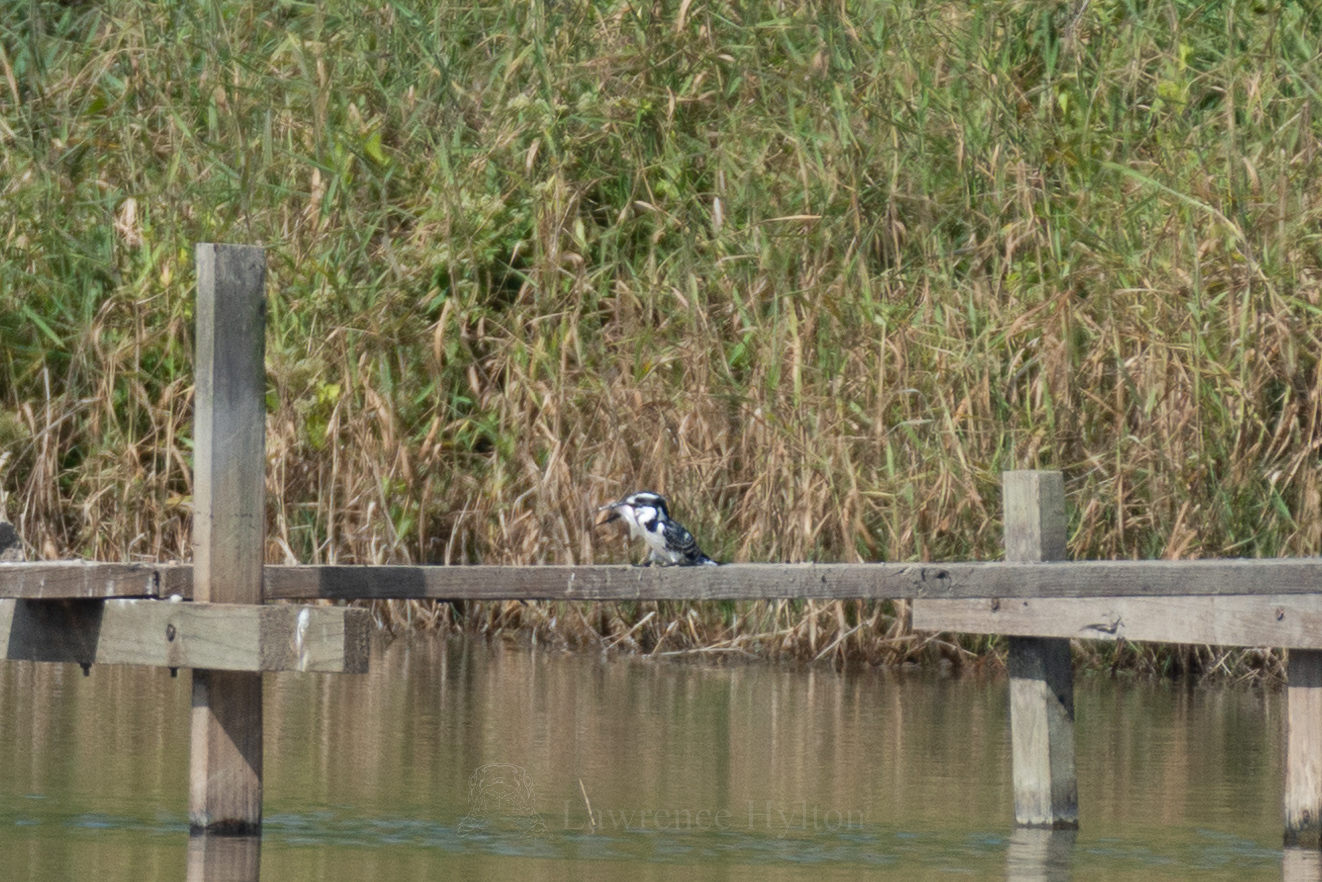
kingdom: Animalia
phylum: Chordata
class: Aves
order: Coraciiformes
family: Alcedinidae
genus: Ceryle
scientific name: Ceryle rudis
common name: Pied kingfisher
